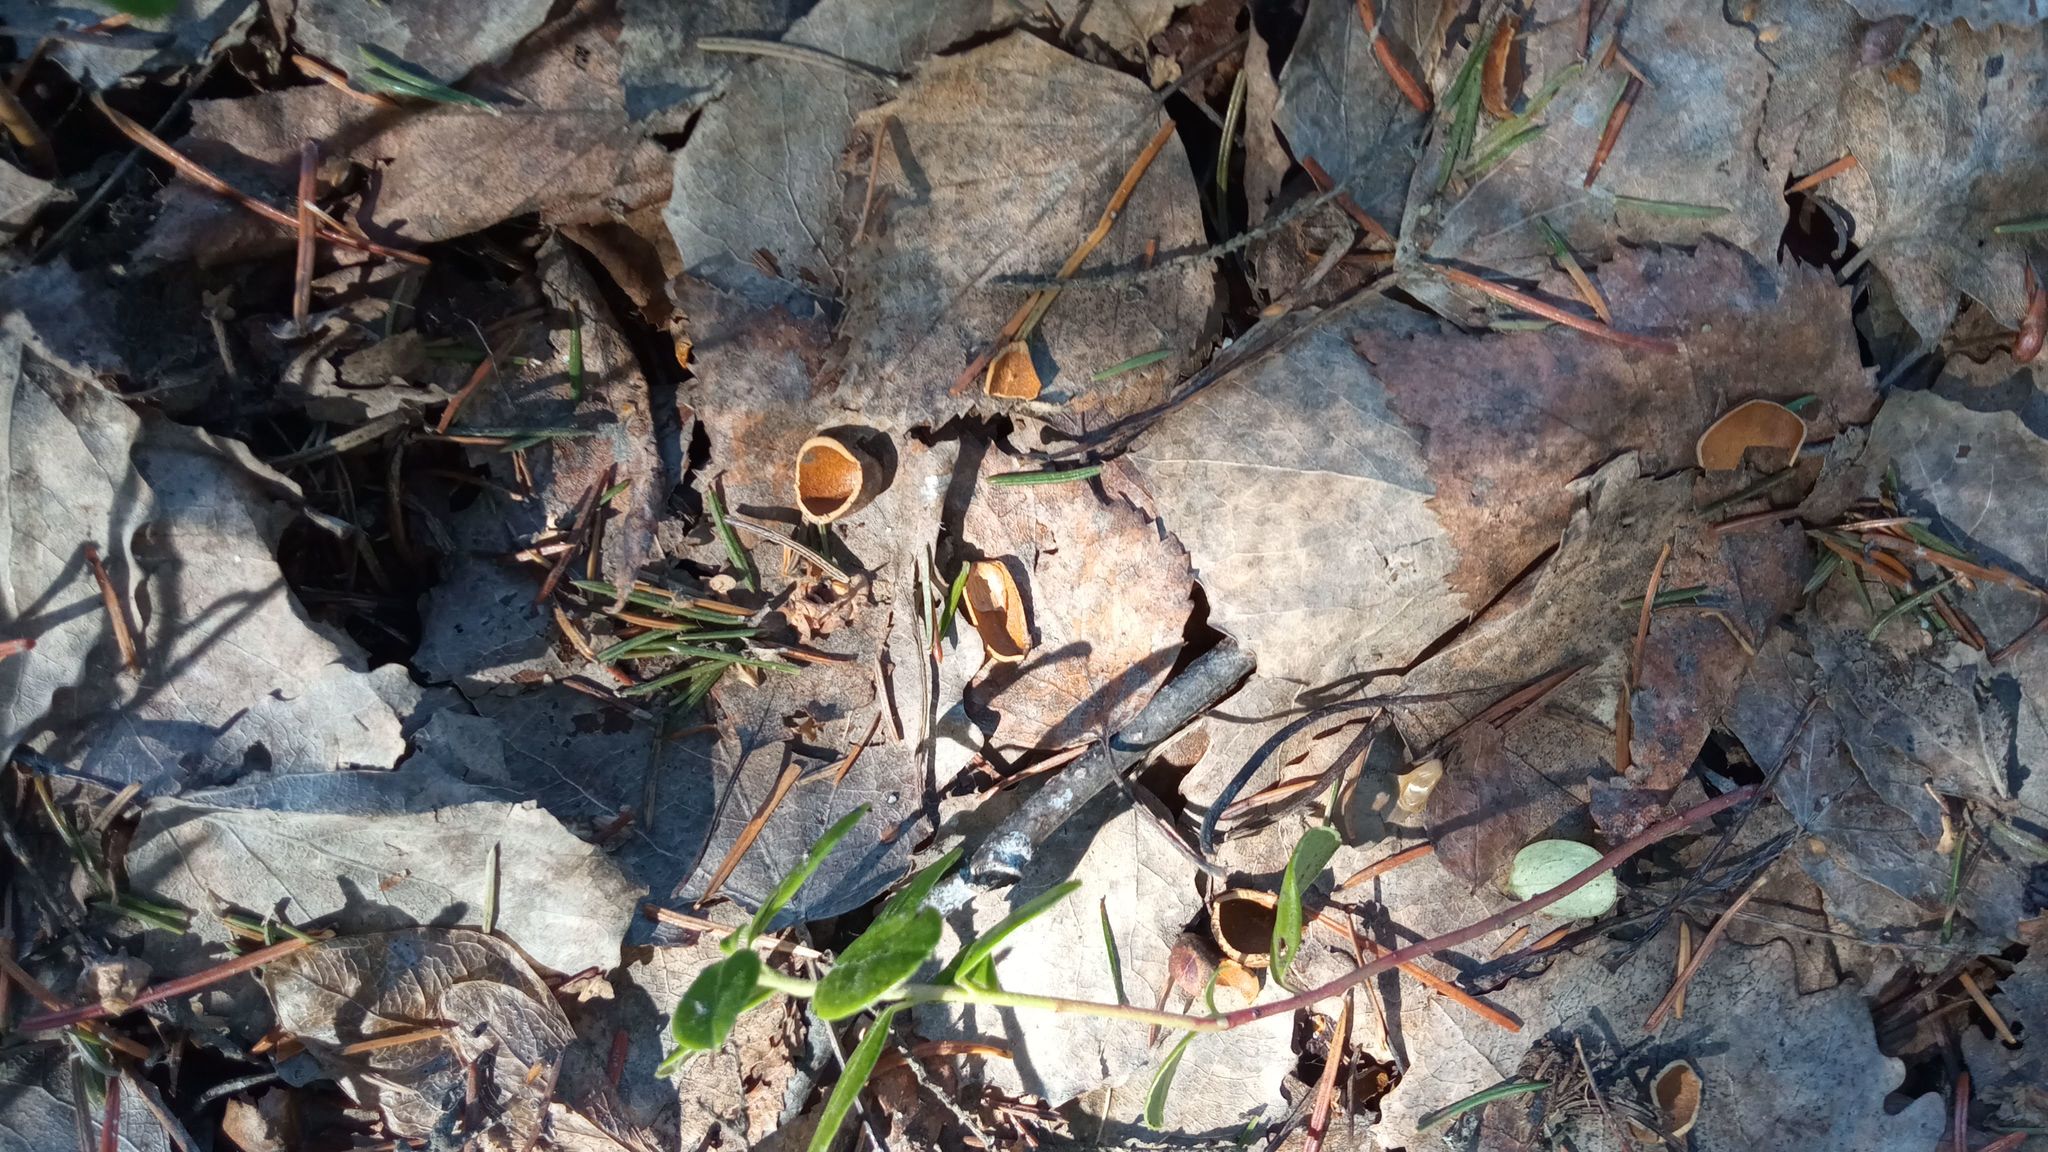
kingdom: Animalia
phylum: Chordata
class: Mammalia
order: Rodentia
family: Sciuridae
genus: Sciurus
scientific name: Sciurus vulgaris
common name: Eurasian red squirrel
